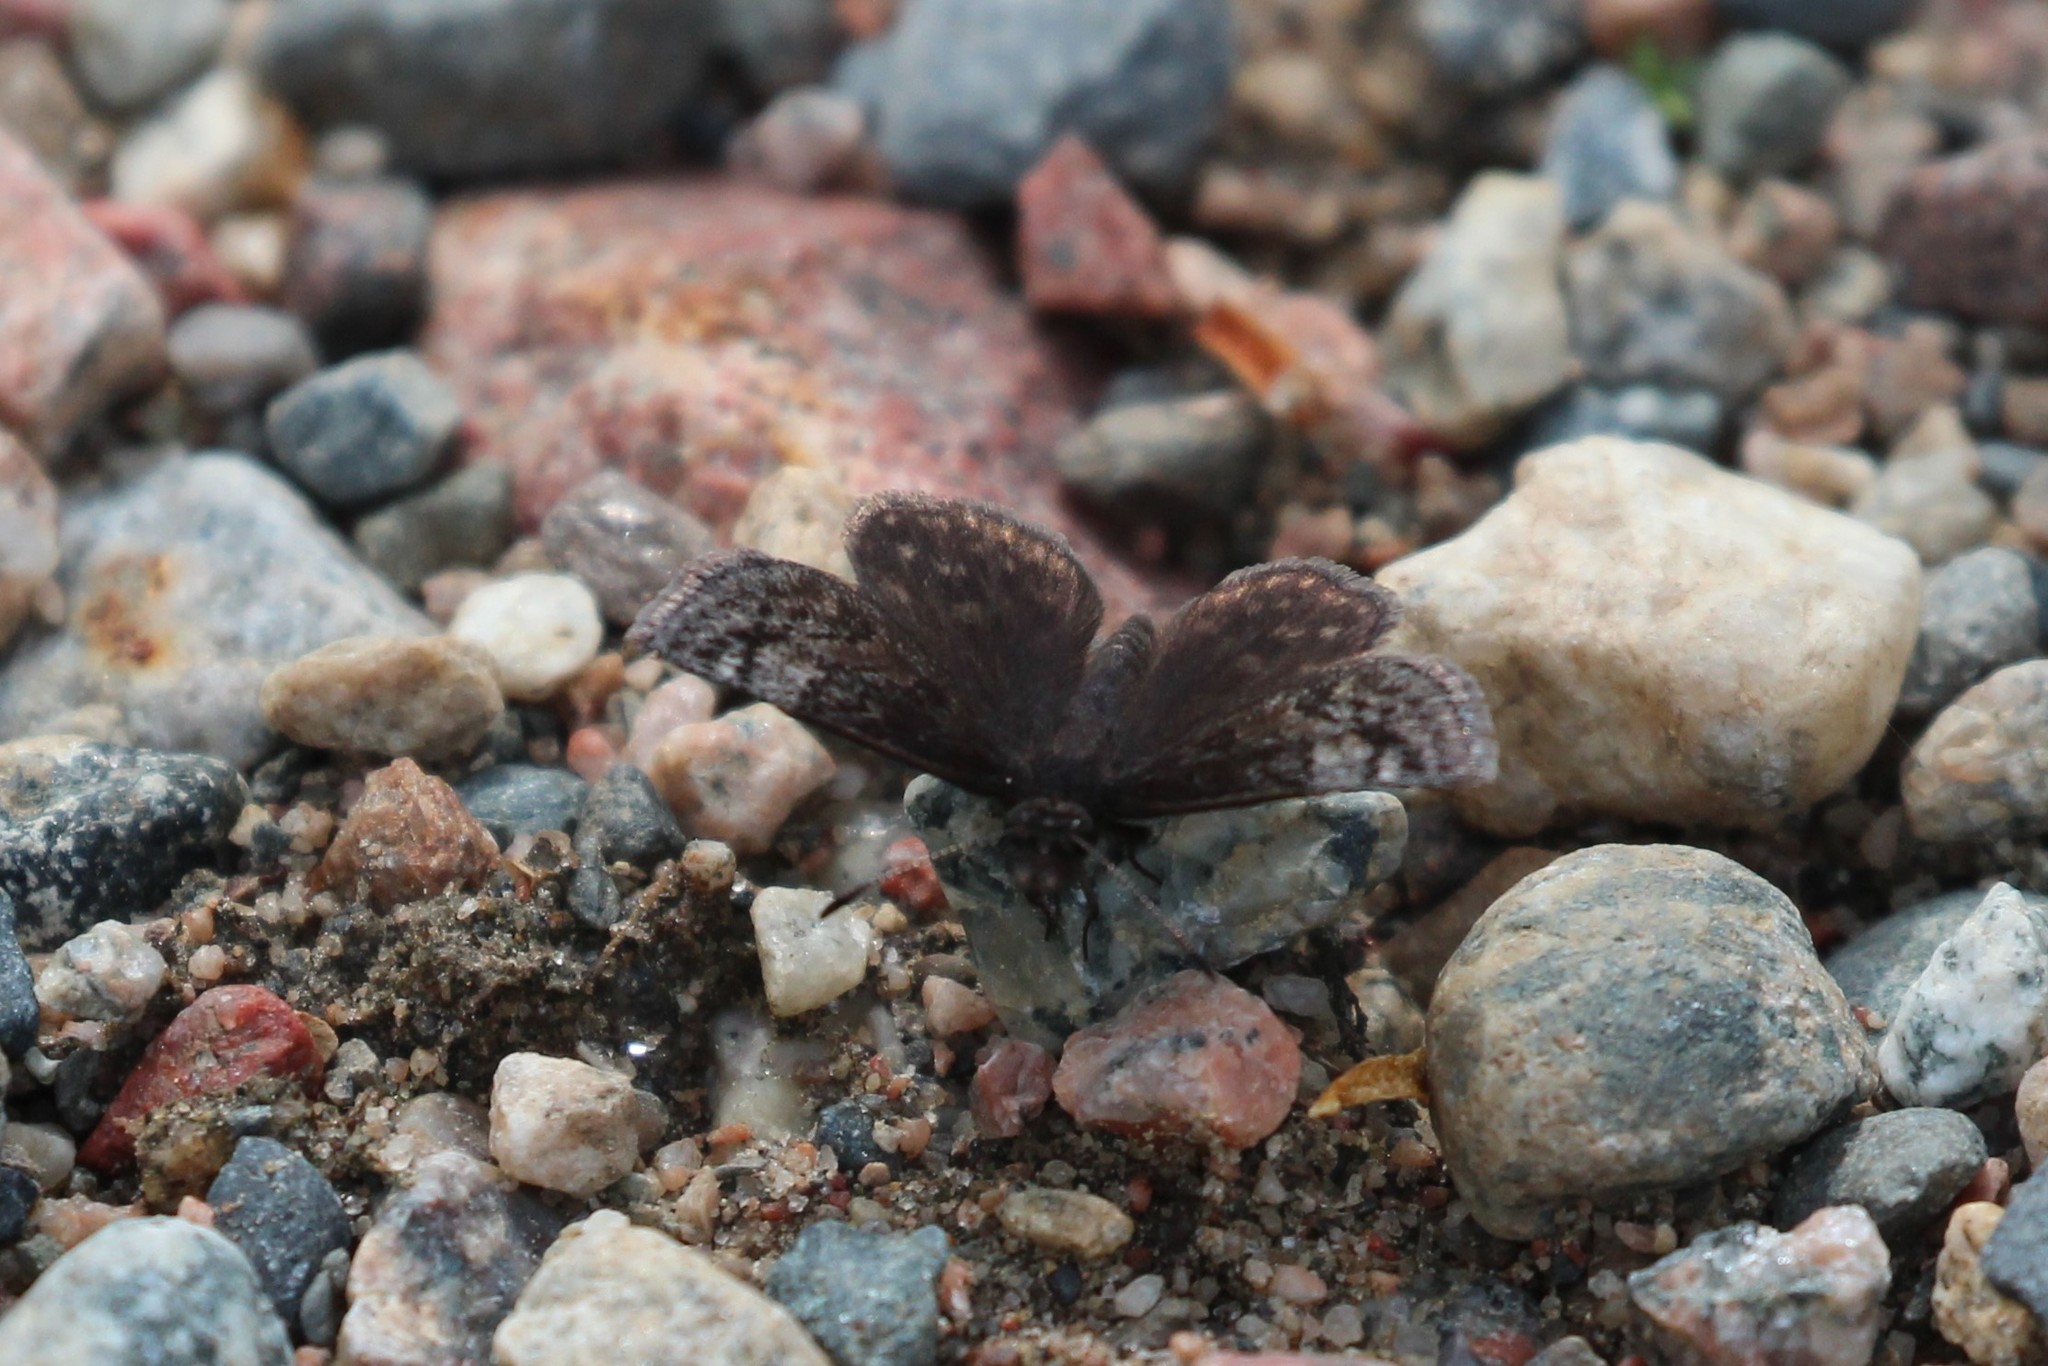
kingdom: Animalia
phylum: Arthropoda
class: Insecta
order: Lepidoptera
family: Hesperiidae
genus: Erynnis
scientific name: Erynnis icelus
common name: Dreamy duskywing
